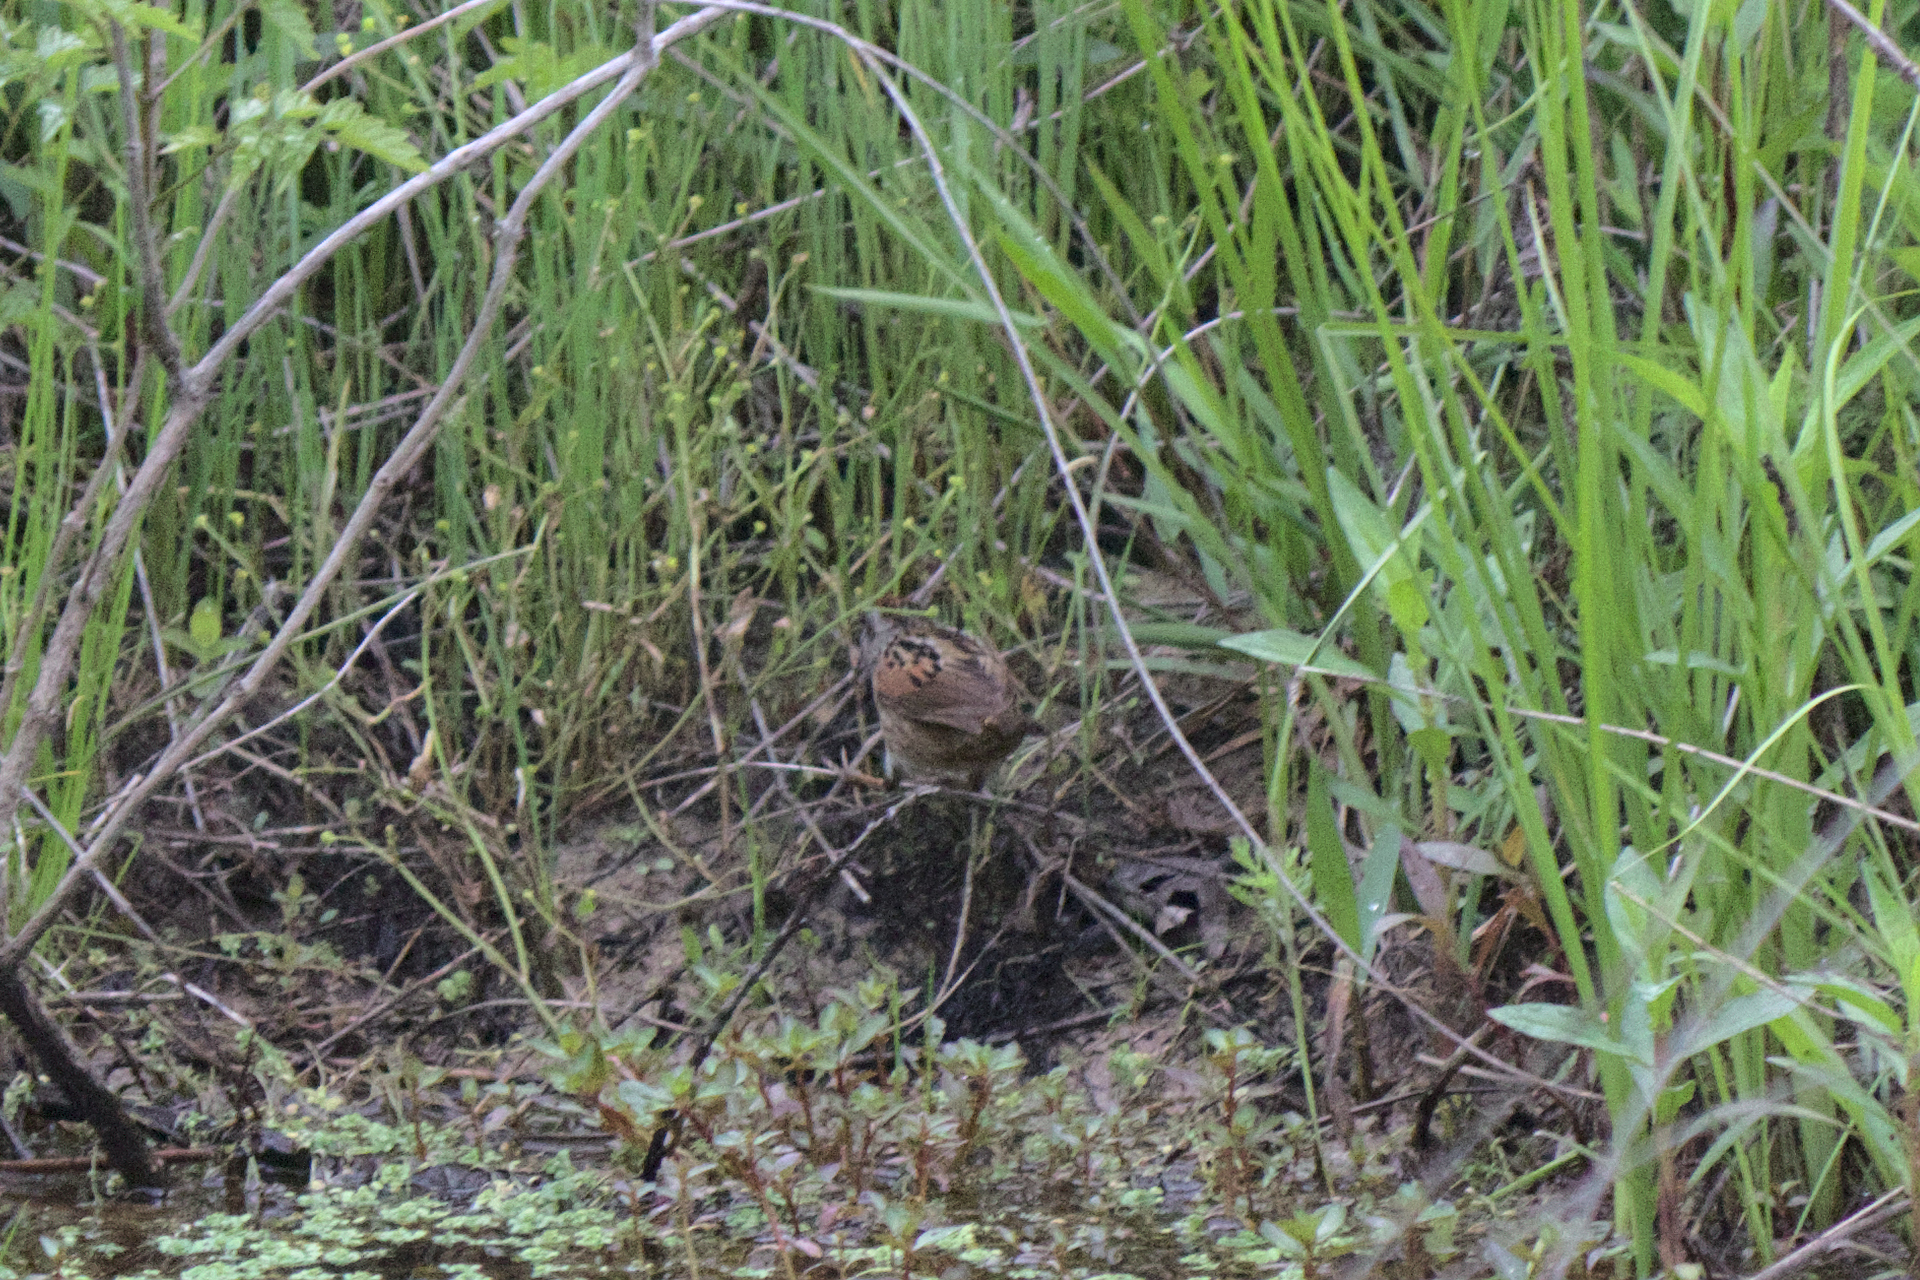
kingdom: Animalia
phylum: Chordata
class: Aves
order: Passeriformes
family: Passerellidae
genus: Melospiza
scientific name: Melospiza georgiana
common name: Swamp sparrow
